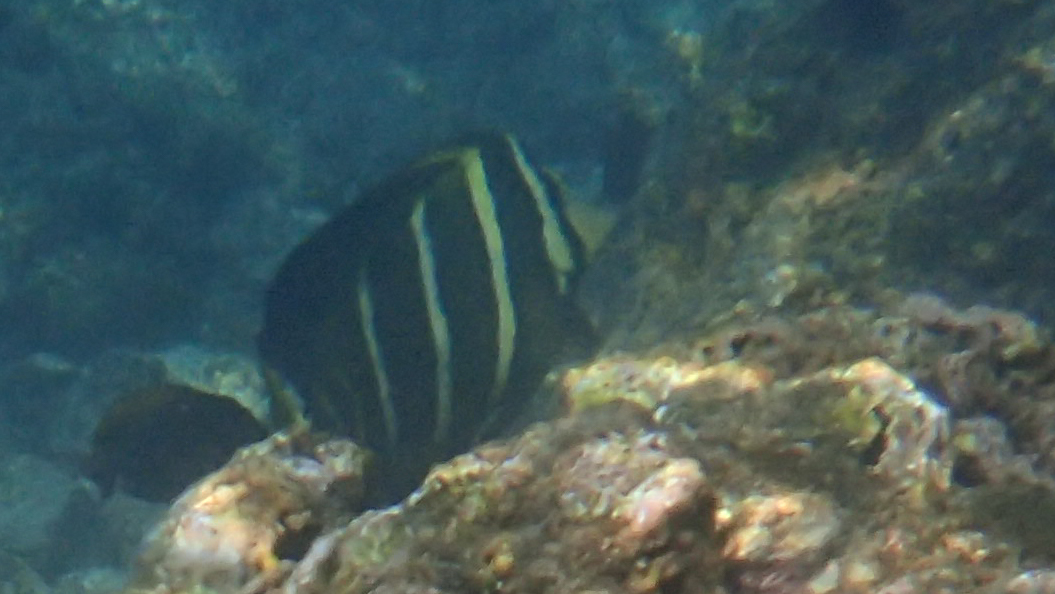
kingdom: Animalia
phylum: Chordata
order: Perciformes
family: Acanthuridae
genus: Zebrasoma
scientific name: Zebrasoma veliferum
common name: Sailfin surgeonfish
